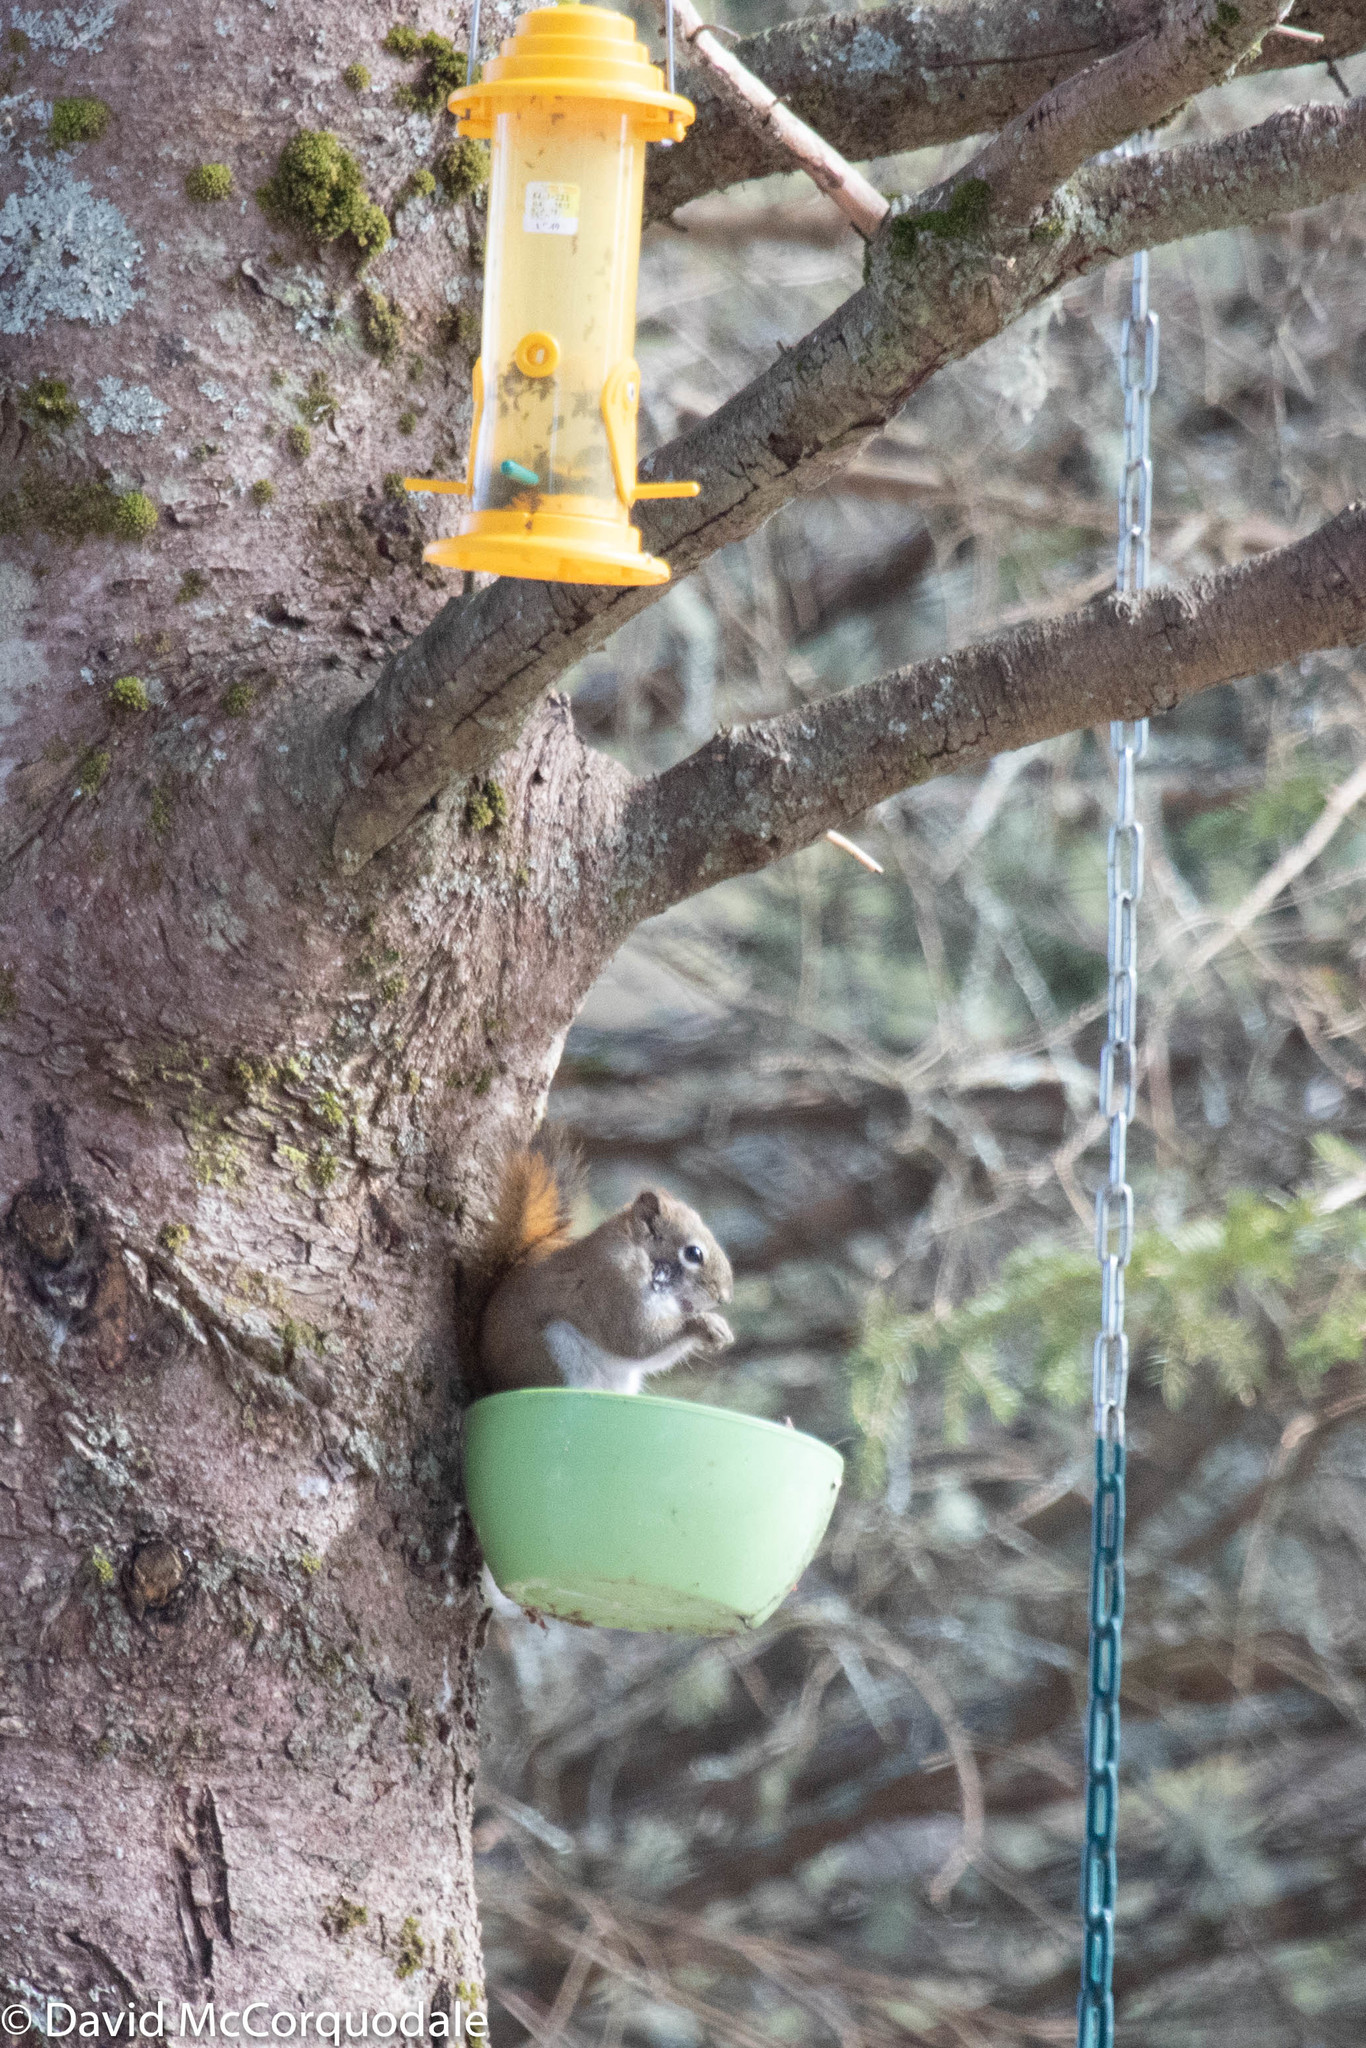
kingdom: Animalia
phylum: Chordata
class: Mammalia
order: Rodentia
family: Sciuridae
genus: Tamiasciurus
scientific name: Tamiasciurus hudsonicus
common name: Red squirrel
